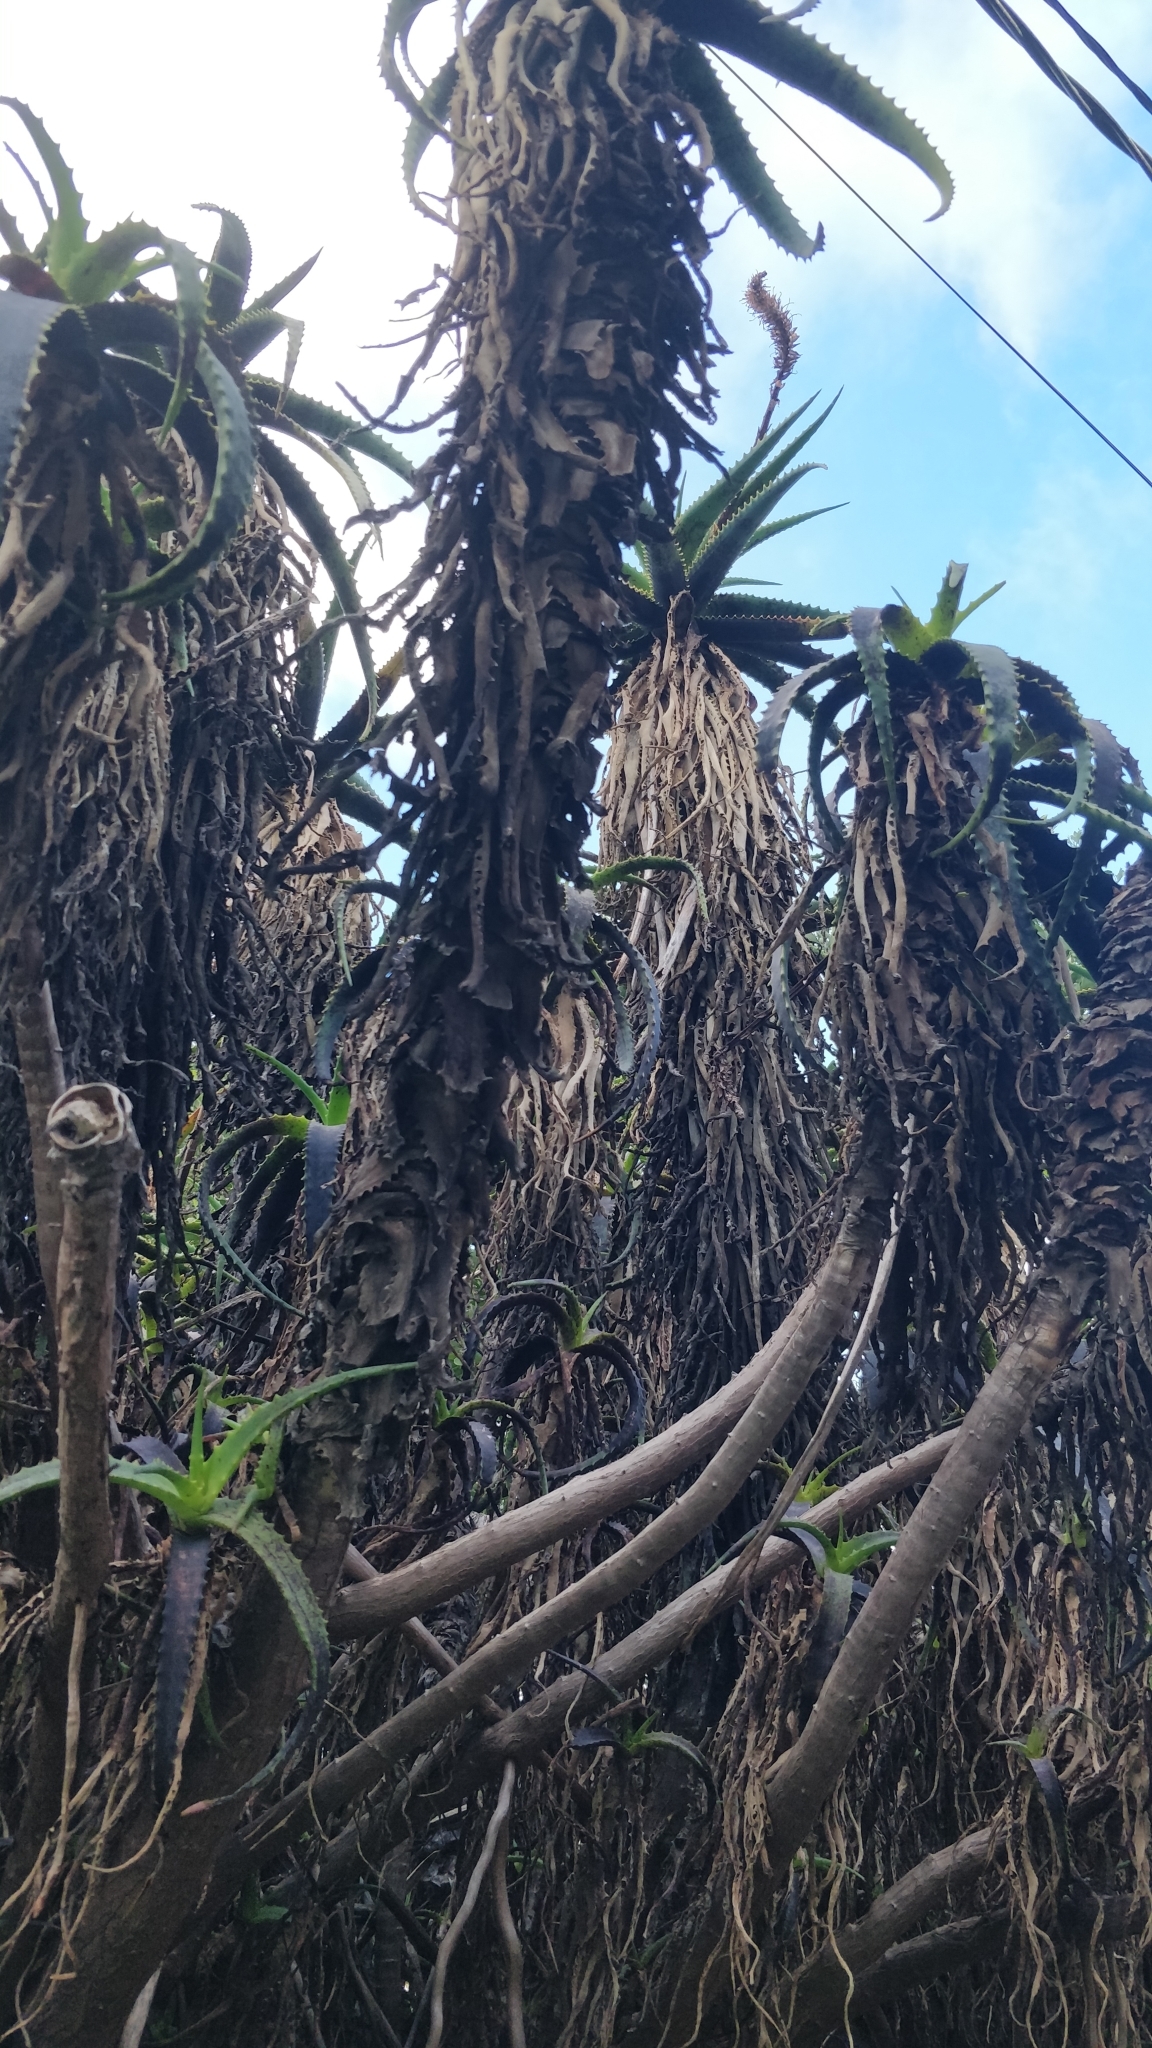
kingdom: Plantae
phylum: Tracheophyta
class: Liliopsida
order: Asparagales
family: Asphodelaceae
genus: Aloe
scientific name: Aloe arborescens
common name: Candelabra aloe
